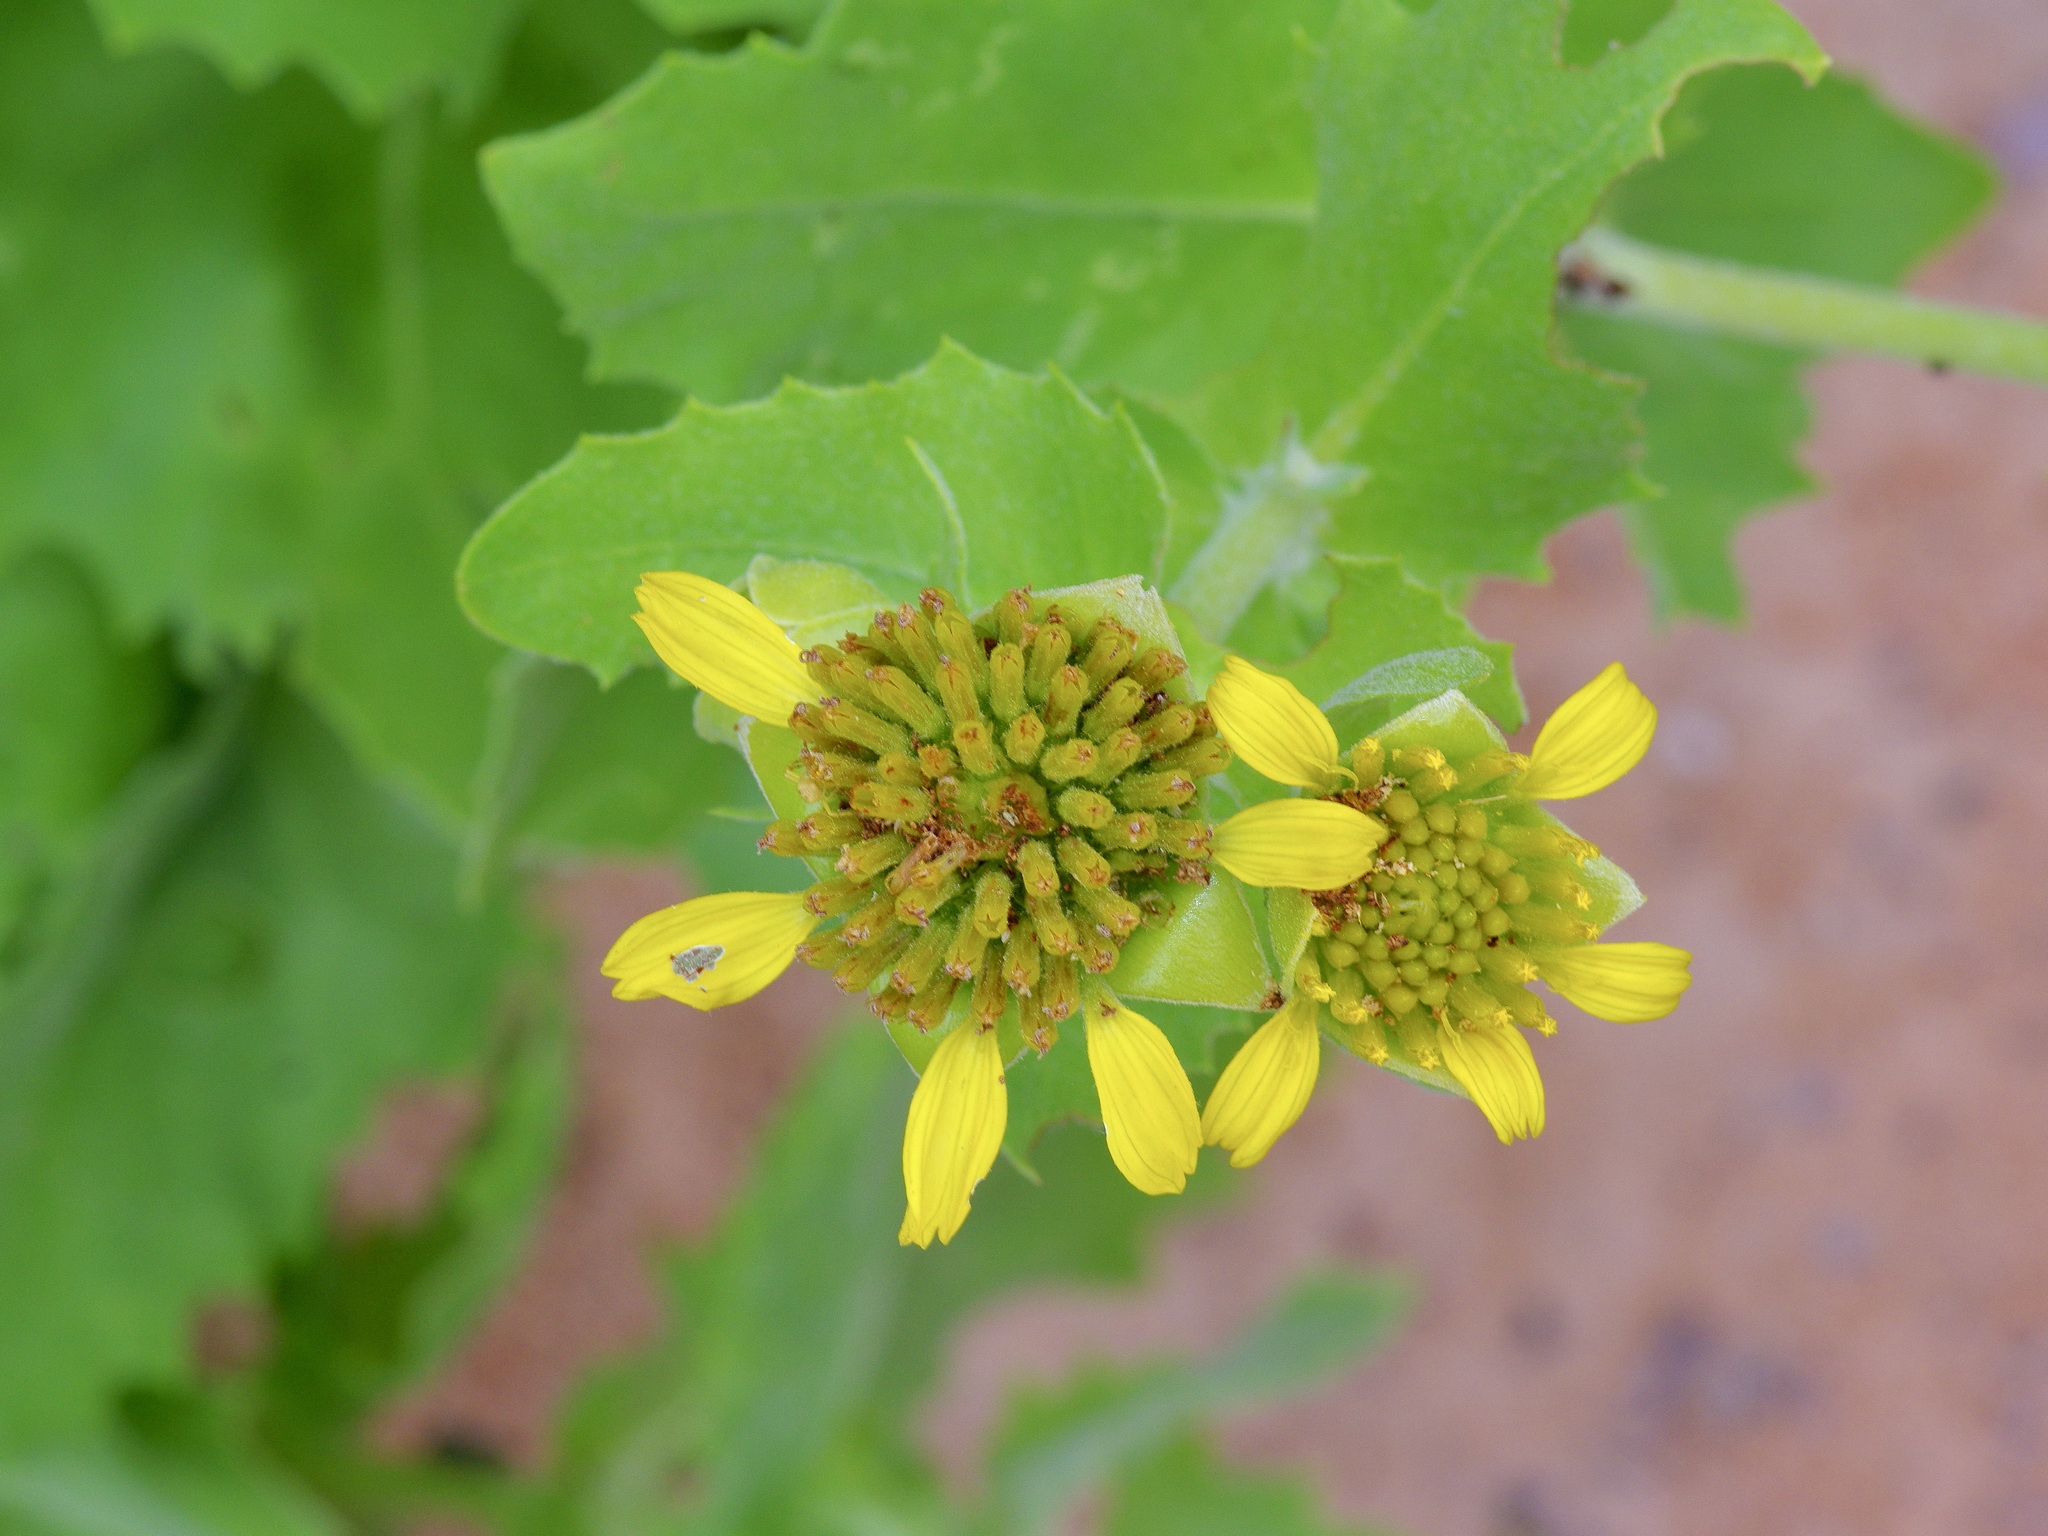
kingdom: Plantae
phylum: Tracheophyta
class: Magnoliopsida
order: Asterales
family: Asteraceae
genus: Tetragonotheca
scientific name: Tetragonotheca ludoviciana
